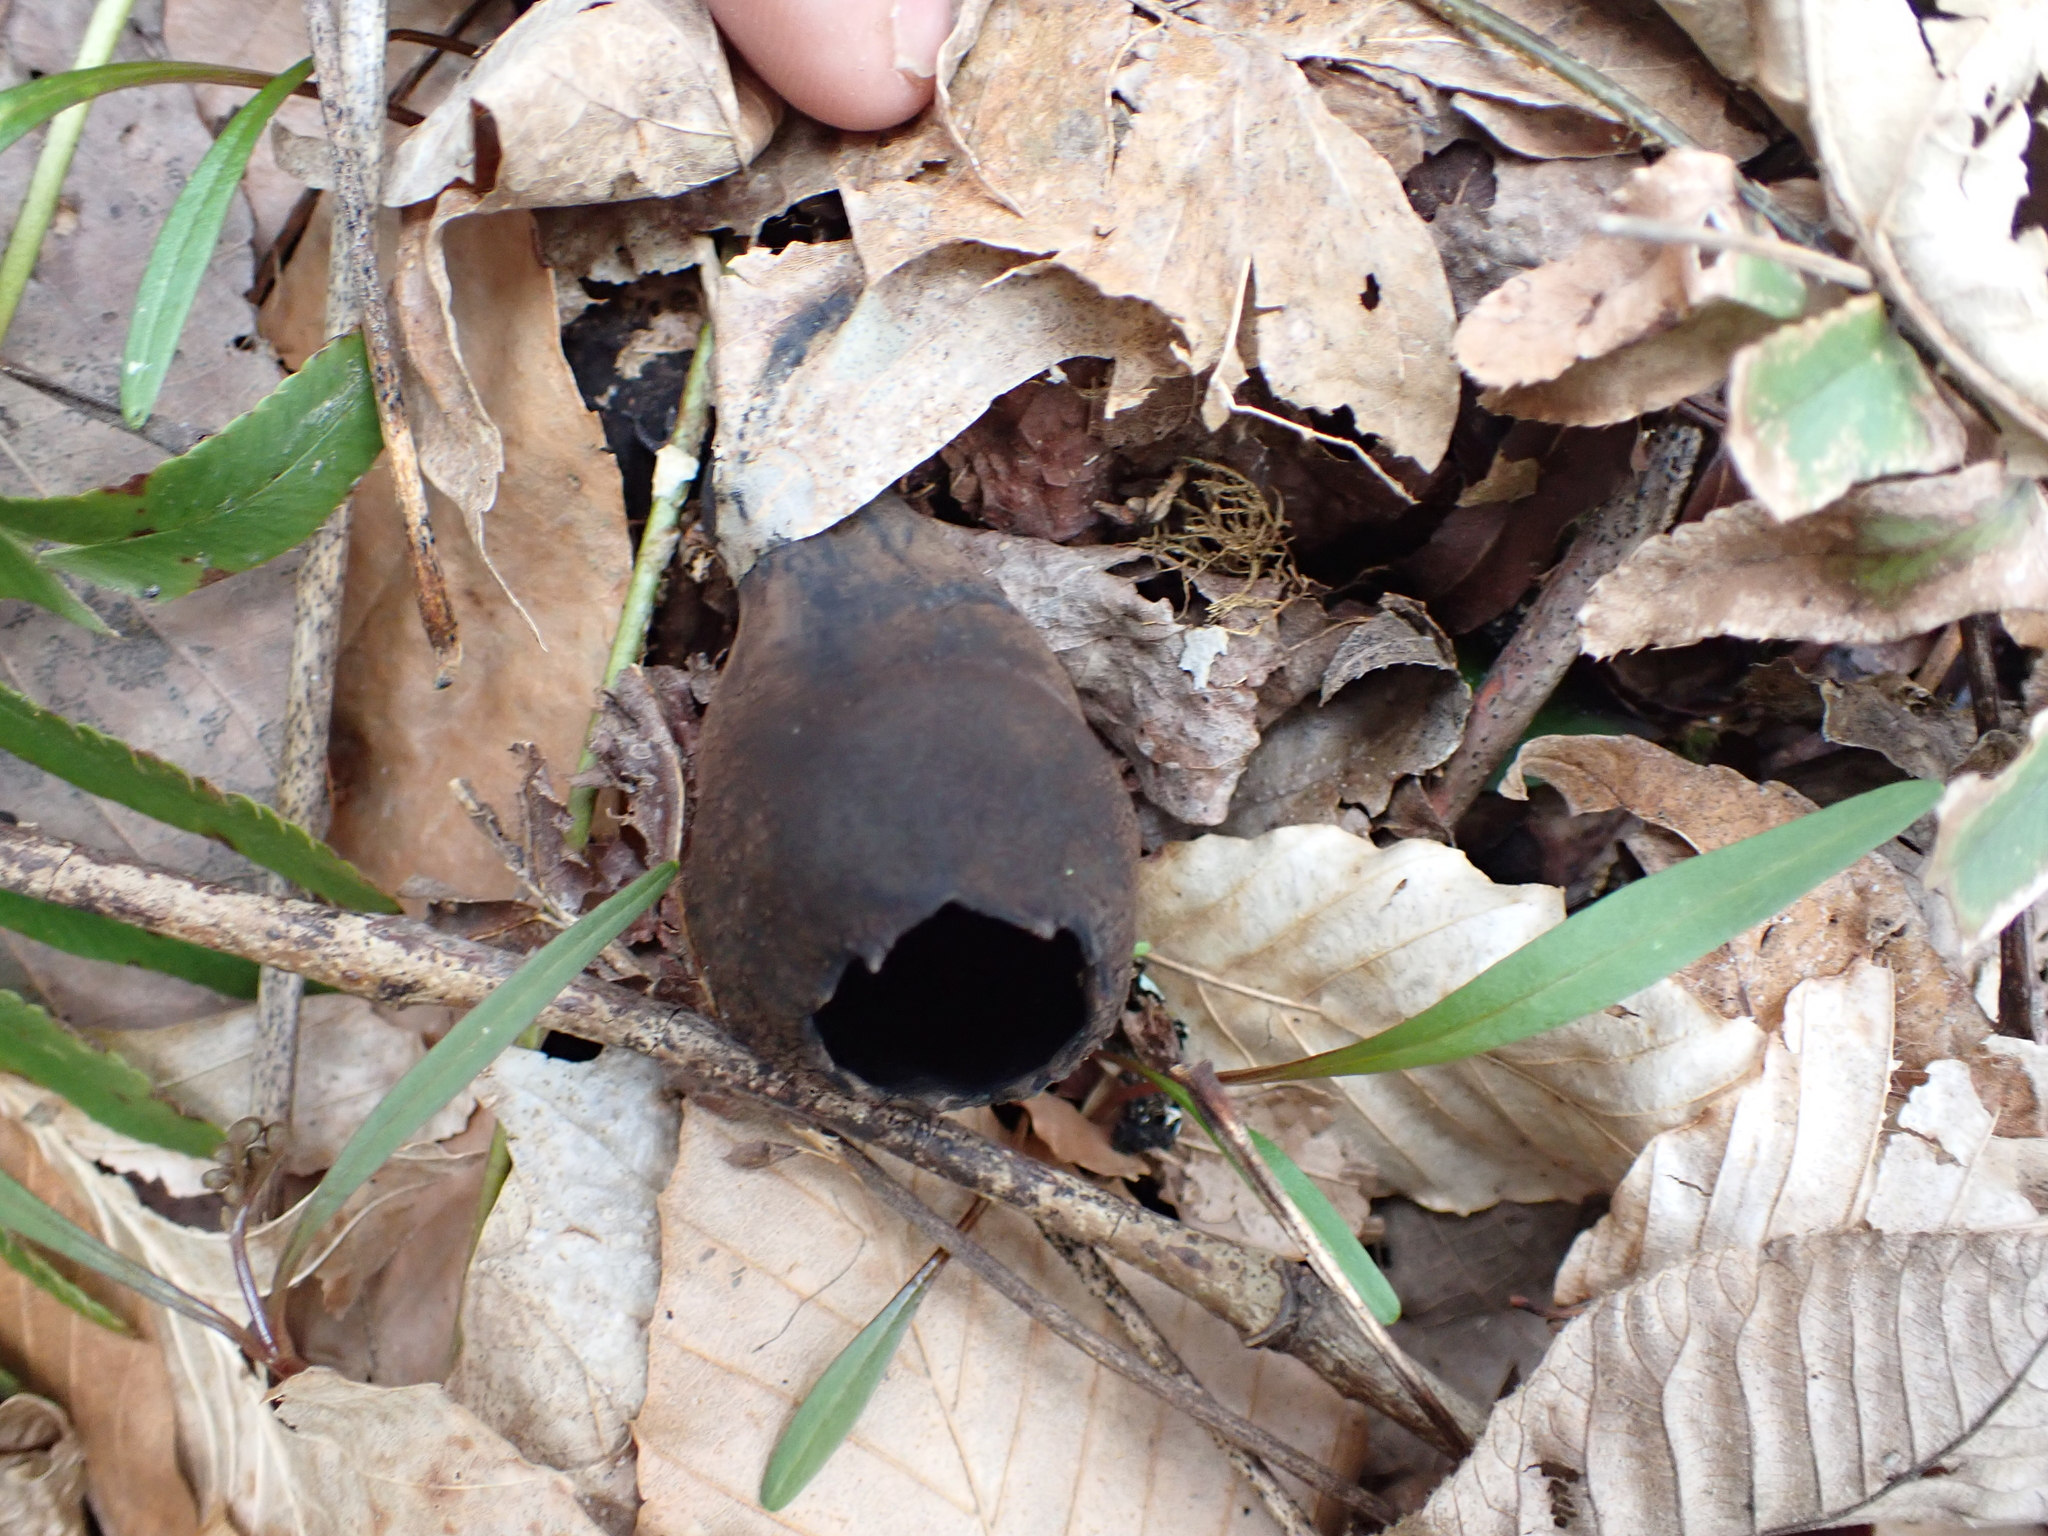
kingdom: Fungi
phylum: Ascomycota
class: Pezizomycetes
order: Pezizales
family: Sarcosomataceae
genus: Urnula
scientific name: Urnula craterium
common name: Devil's urn
